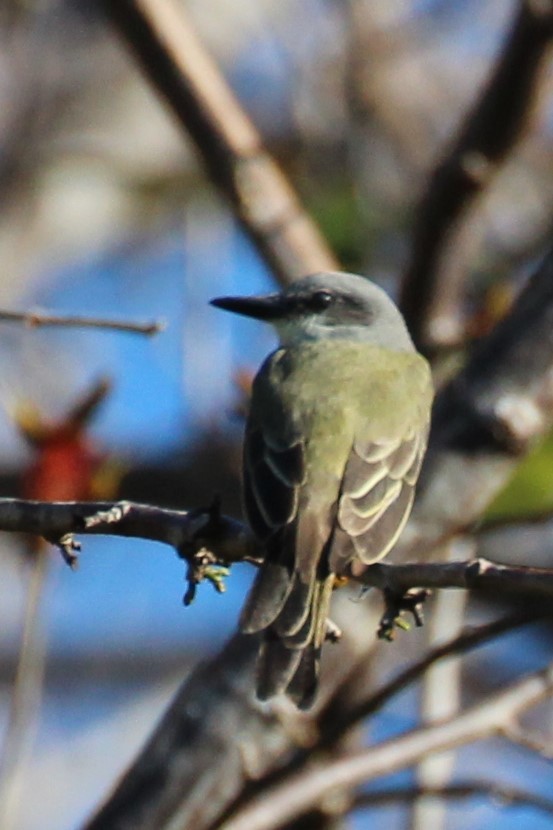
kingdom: Animalia
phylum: Chordata
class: Aves
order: Passeriformes
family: Tyrannidae
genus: Tyrannus
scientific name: Tyrannus melancholicus
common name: Tropical kingbird
